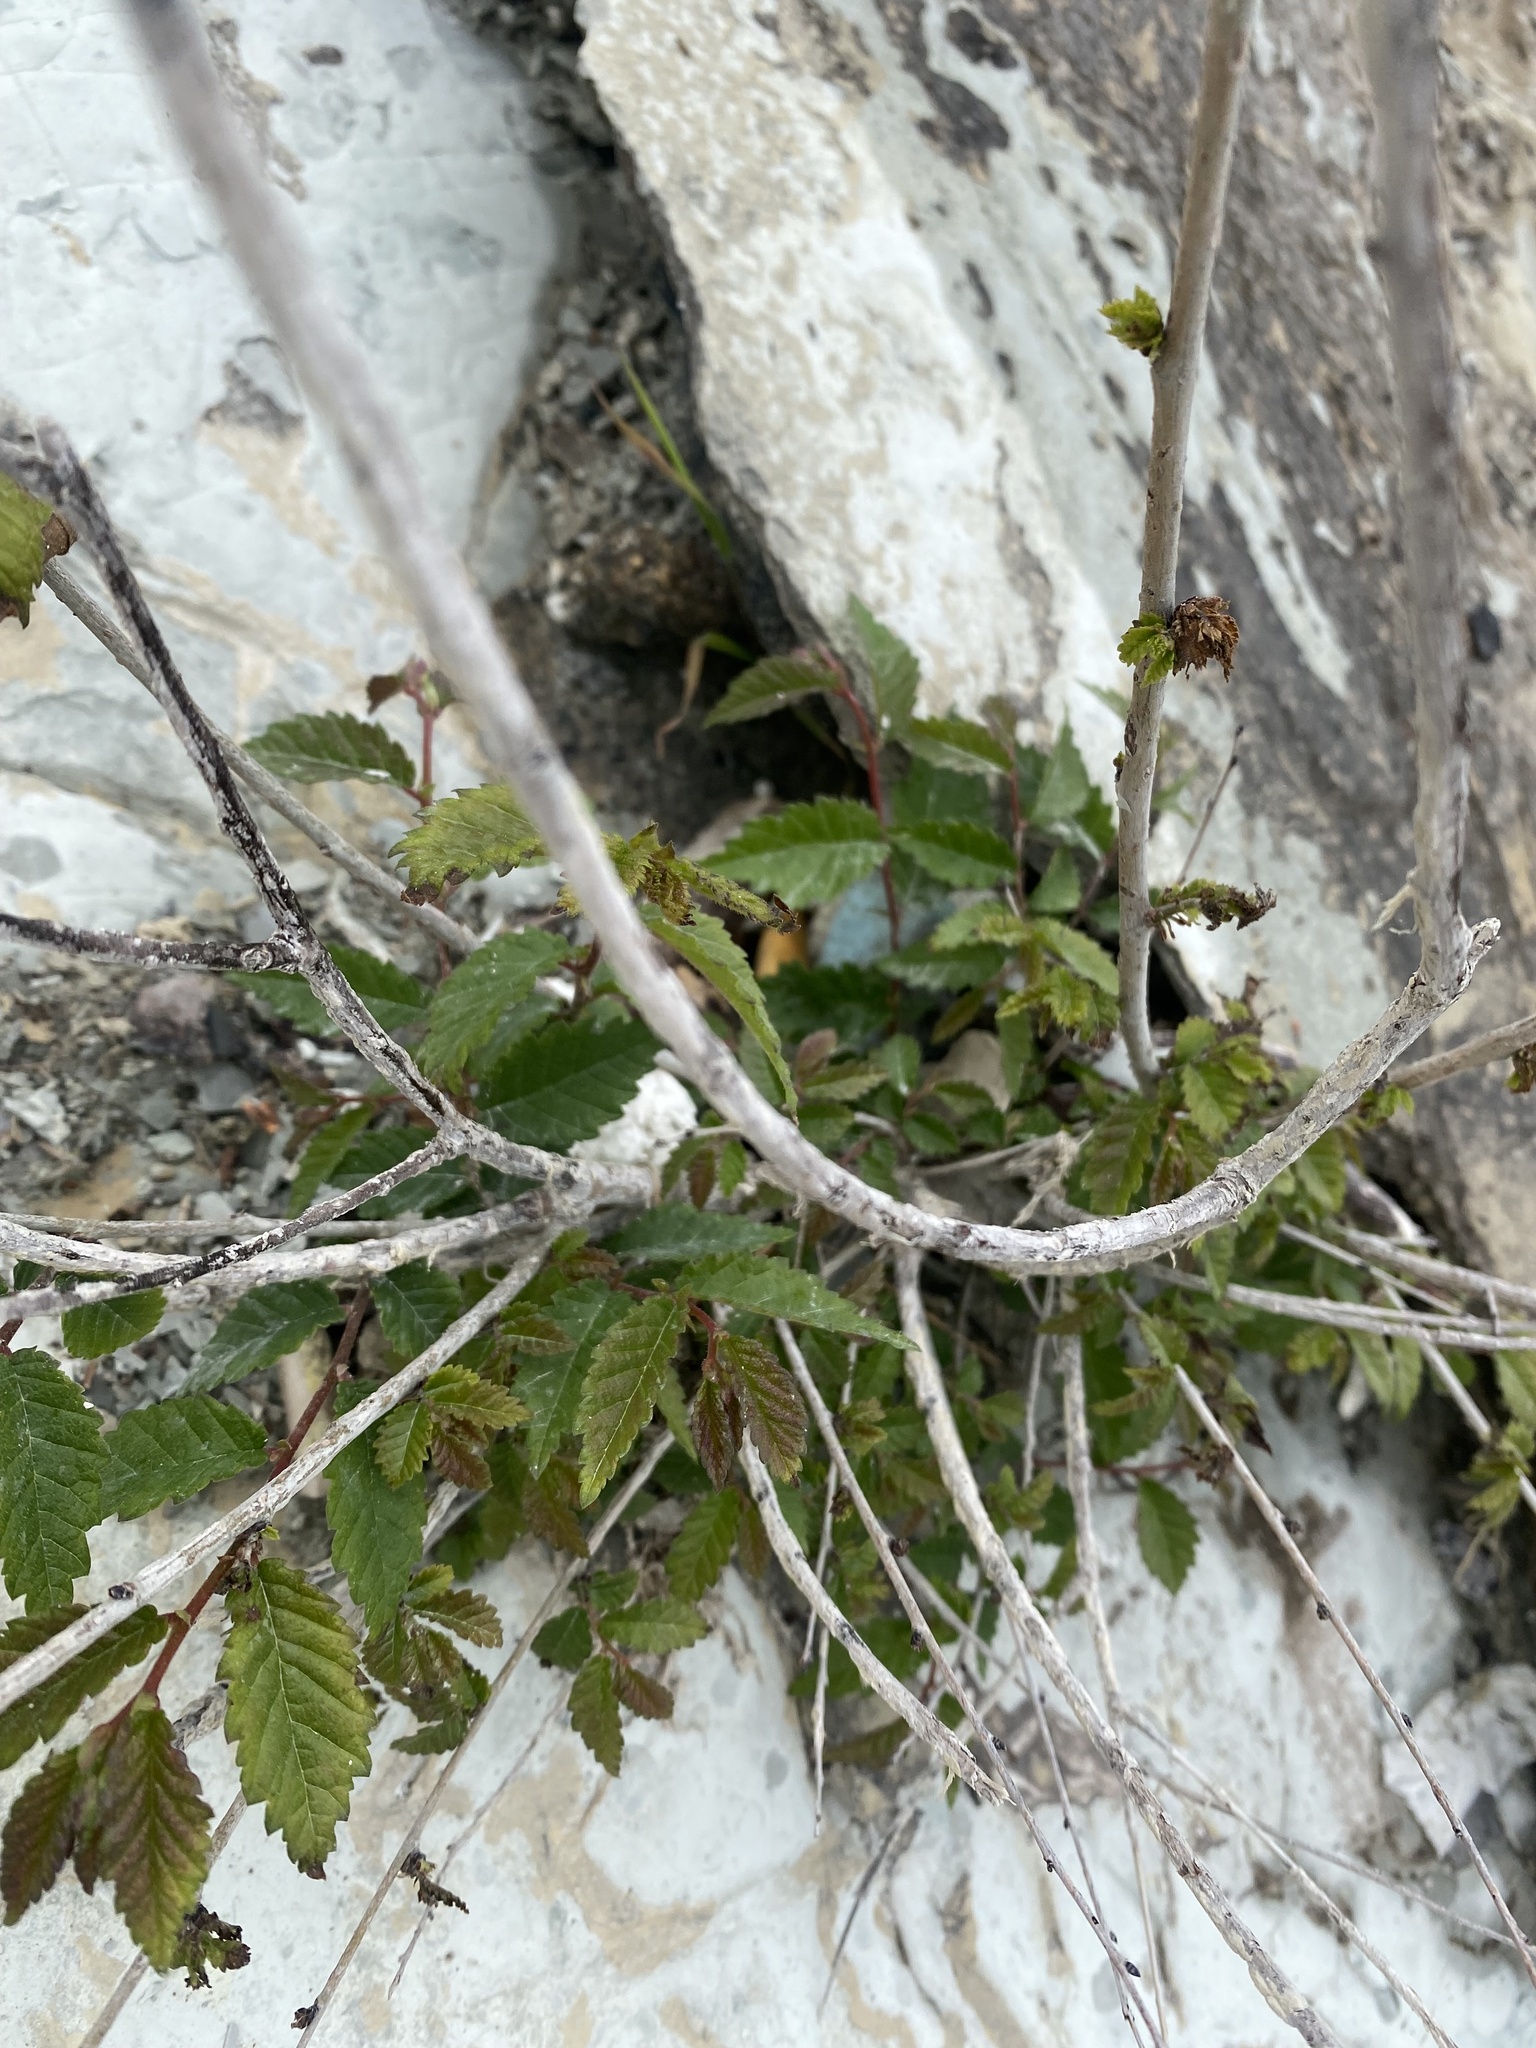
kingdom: Plantae
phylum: Tracheophyta
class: Magnoliopsida
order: Fagales
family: Betulaceae
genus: Carpinus
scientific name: Carpinus orientalis
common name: Eastern hornbeam
